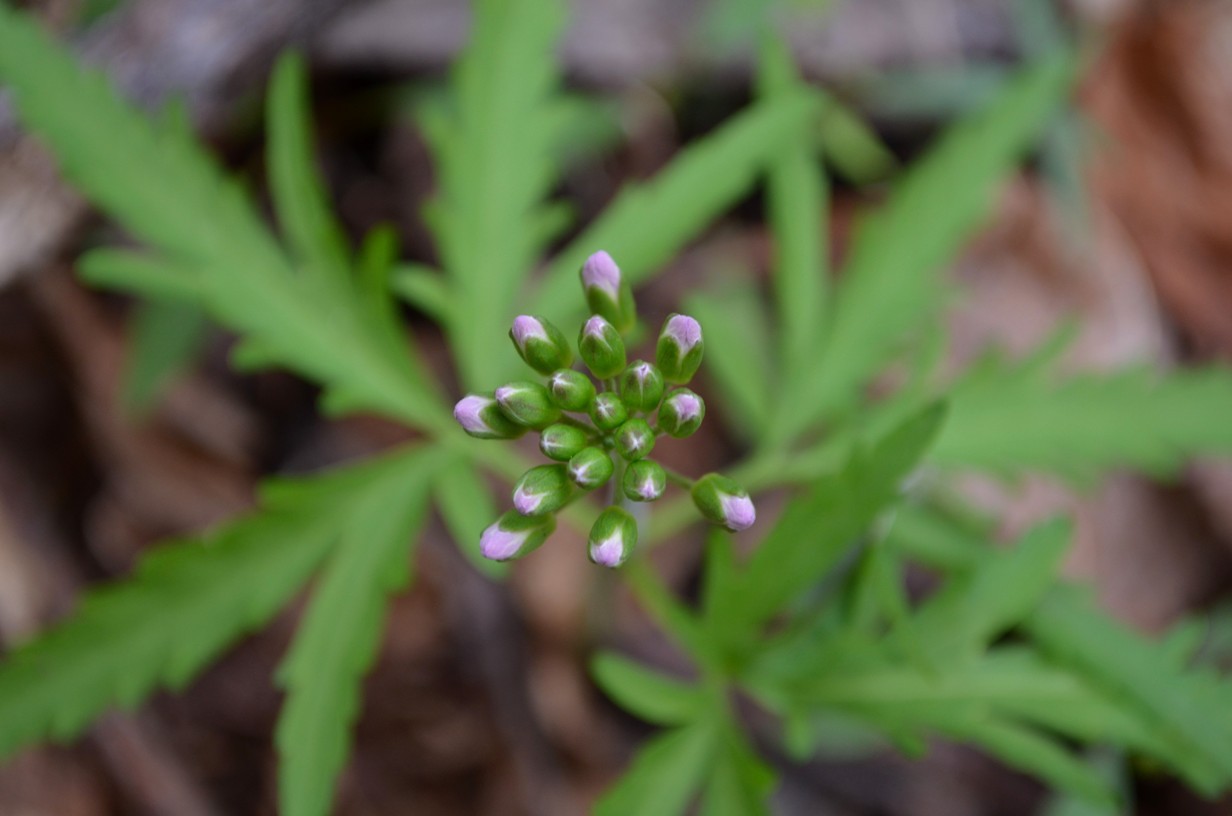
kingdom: Plantae
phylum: Tracheophyta
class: Magnoliopsida
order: Brassicales
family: Brassicaceae
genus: Cardamine
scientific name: Cardamine concatenata
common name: Cut-leaf toothcup
